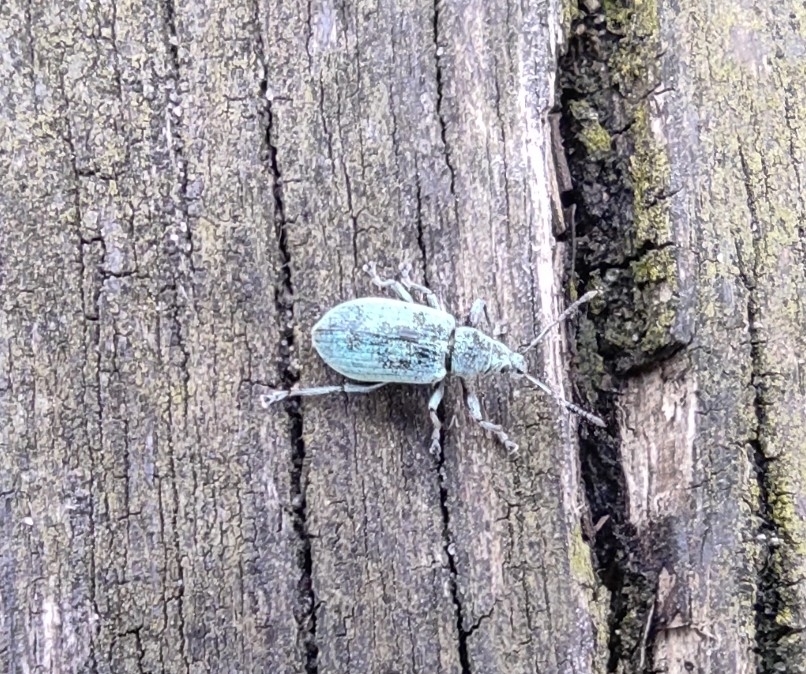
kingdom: Animalia
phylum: Arthropoda
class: Insecta
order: Coleoptera
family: Curculionidae
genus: Phyllobius
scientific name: Phyllobius pomaceus
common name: Green nettle weevil
